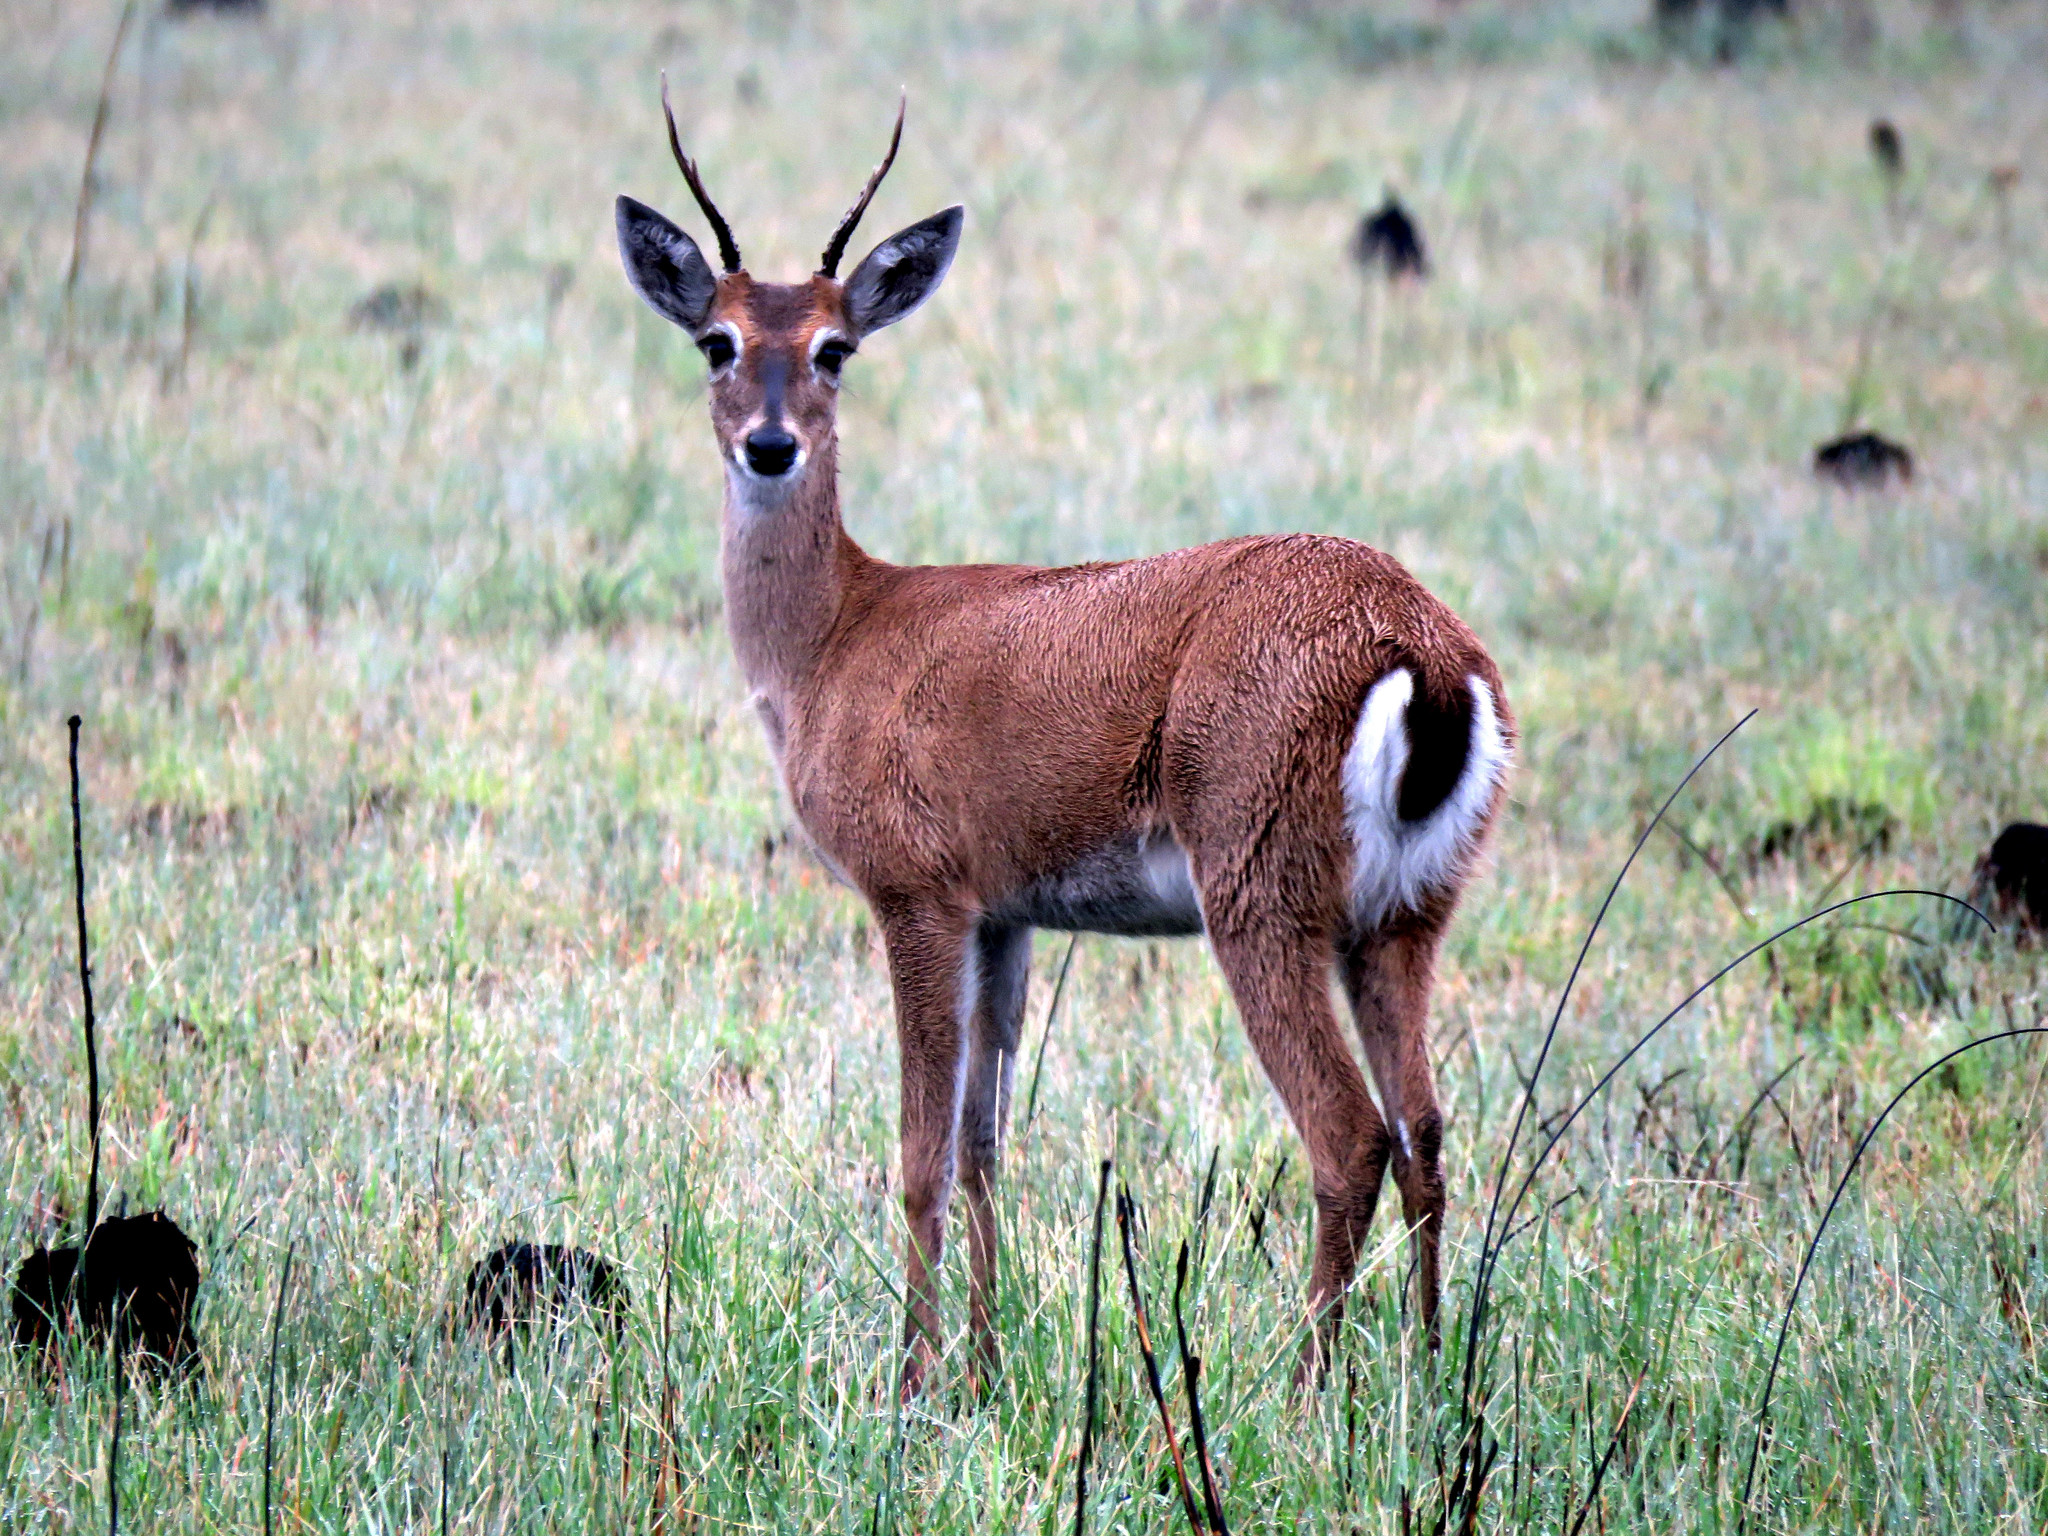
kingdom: Animalia
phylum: Chordata
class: Mammalia
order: Artiodactyla
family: Cervidae
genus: Ozotoceros
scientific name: Ozotoceros bezoarticus
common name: Pampas deer
